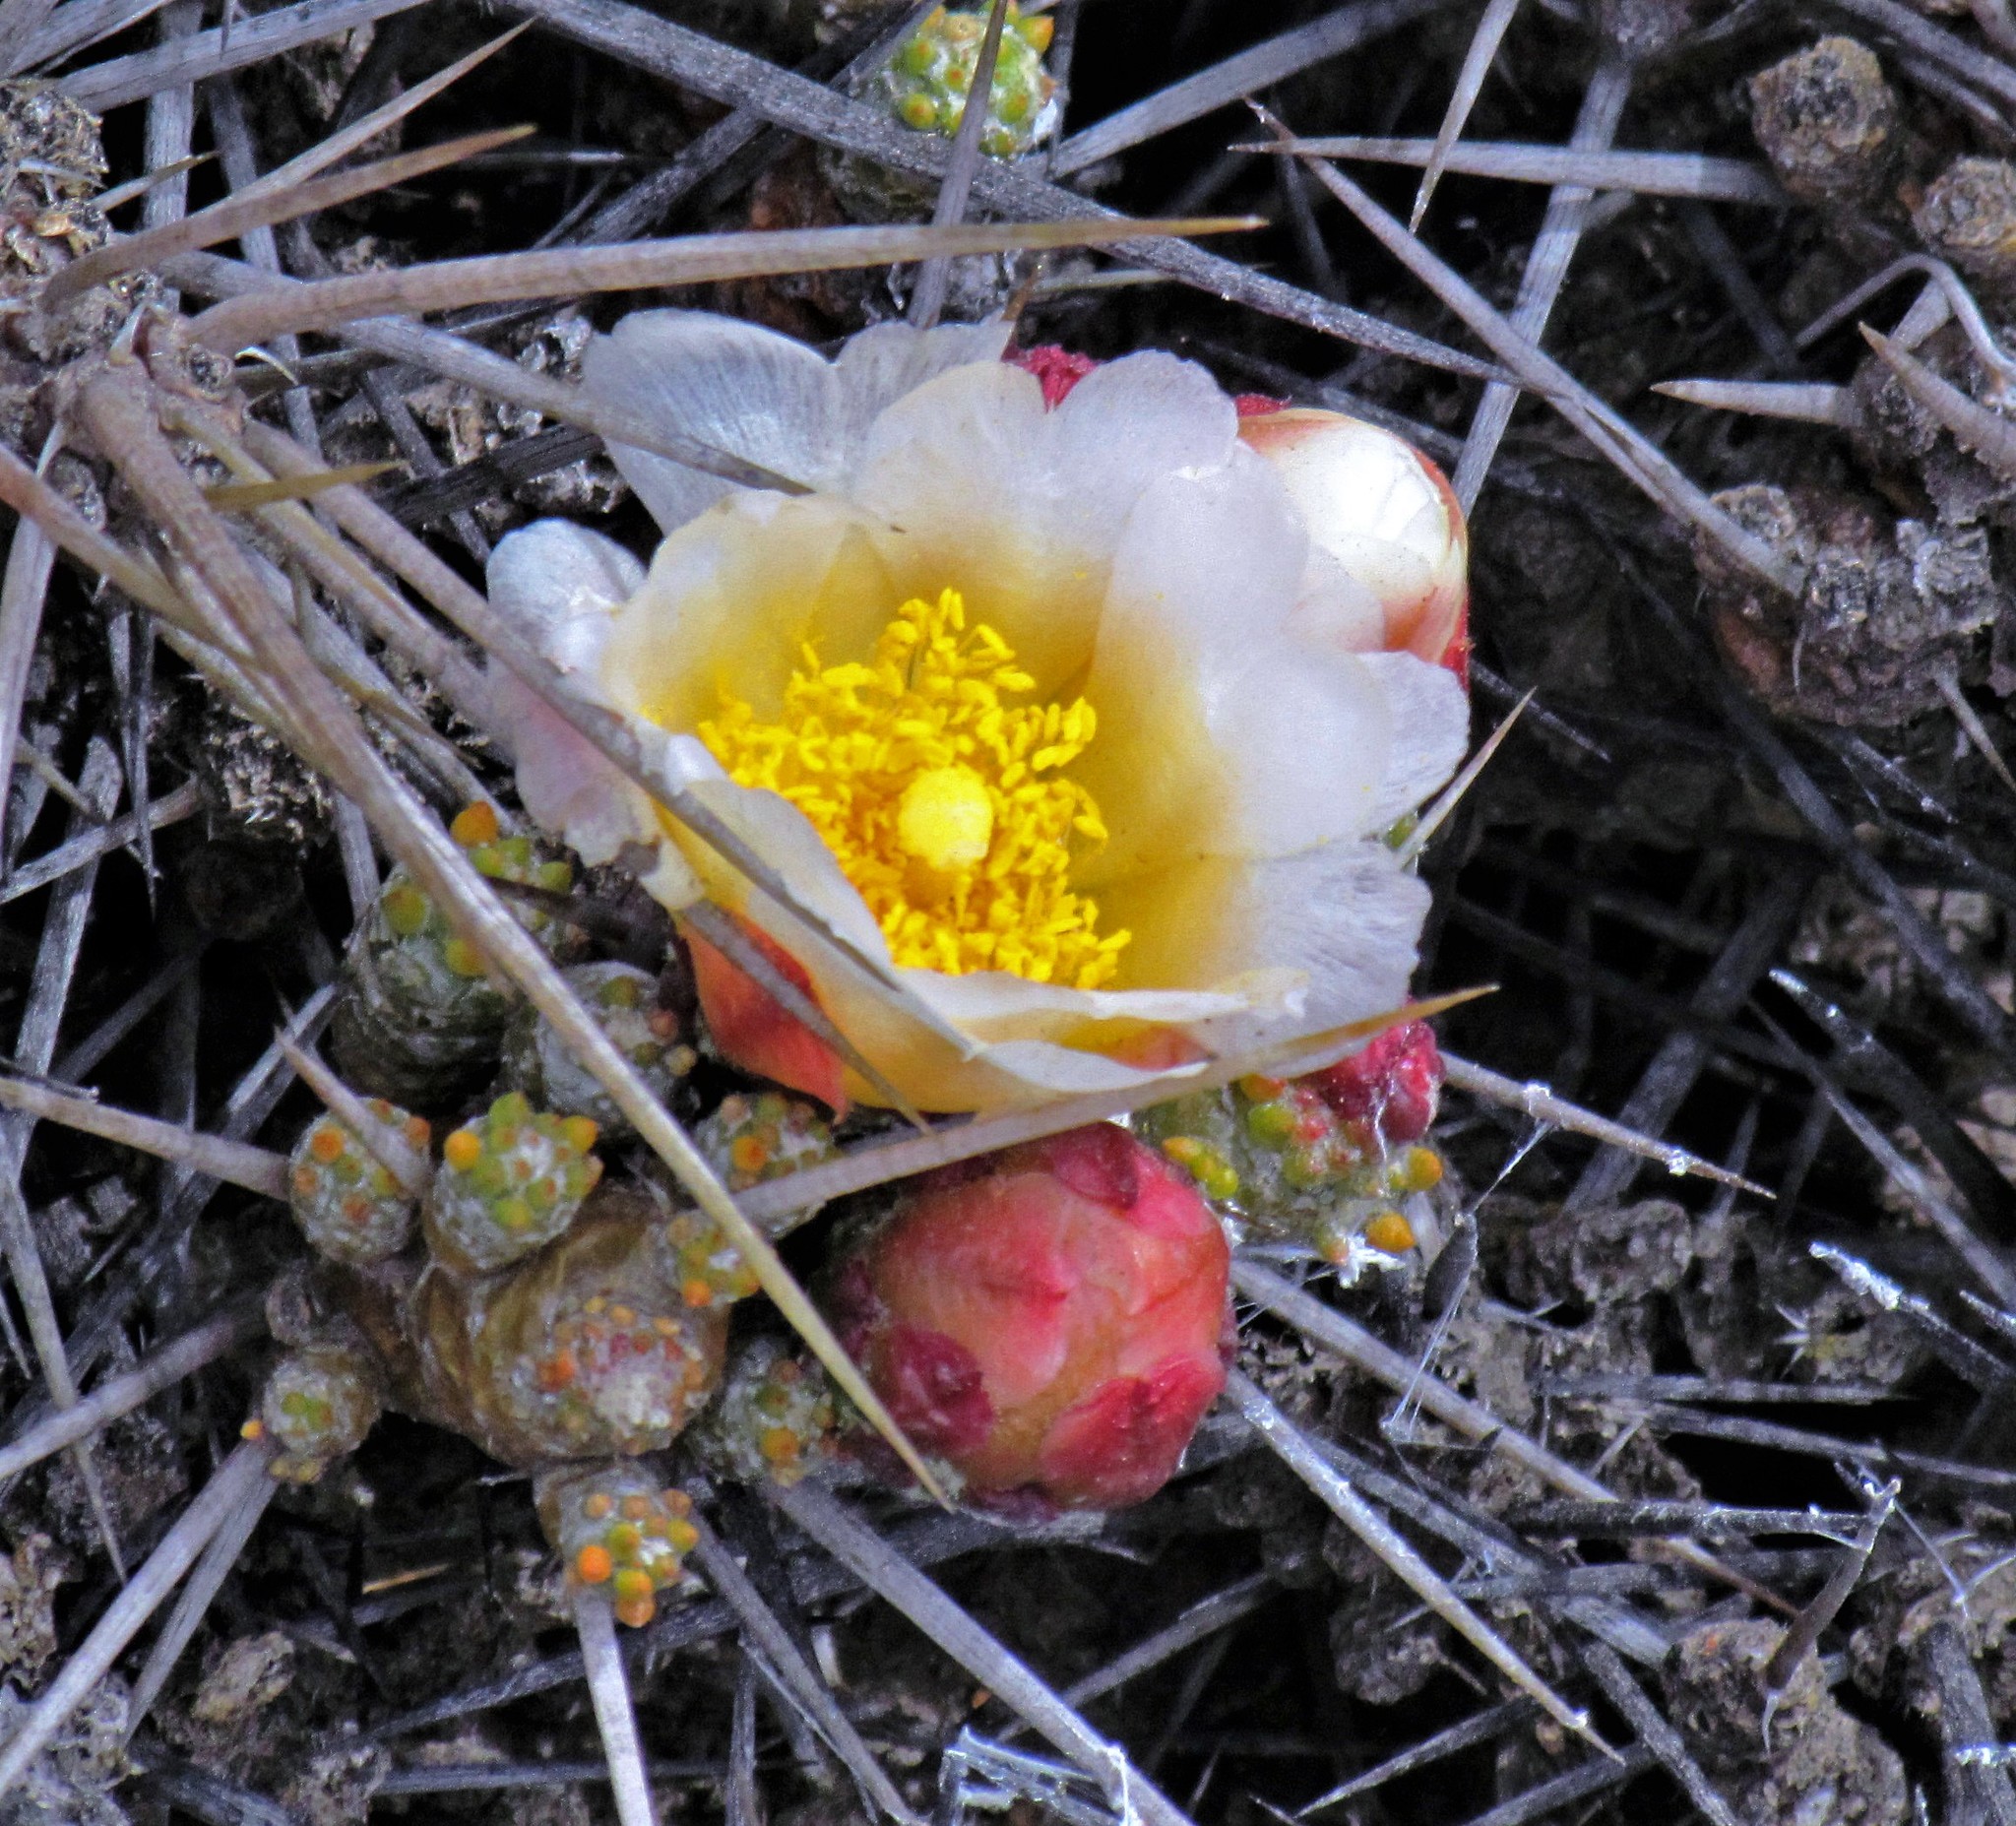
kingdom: Plantae
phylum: Tracheophyta
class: Magnoliopsida
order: Caryophyllales
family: Cactaceae
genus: Maihuenia
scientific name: Maihuenia patagonica
